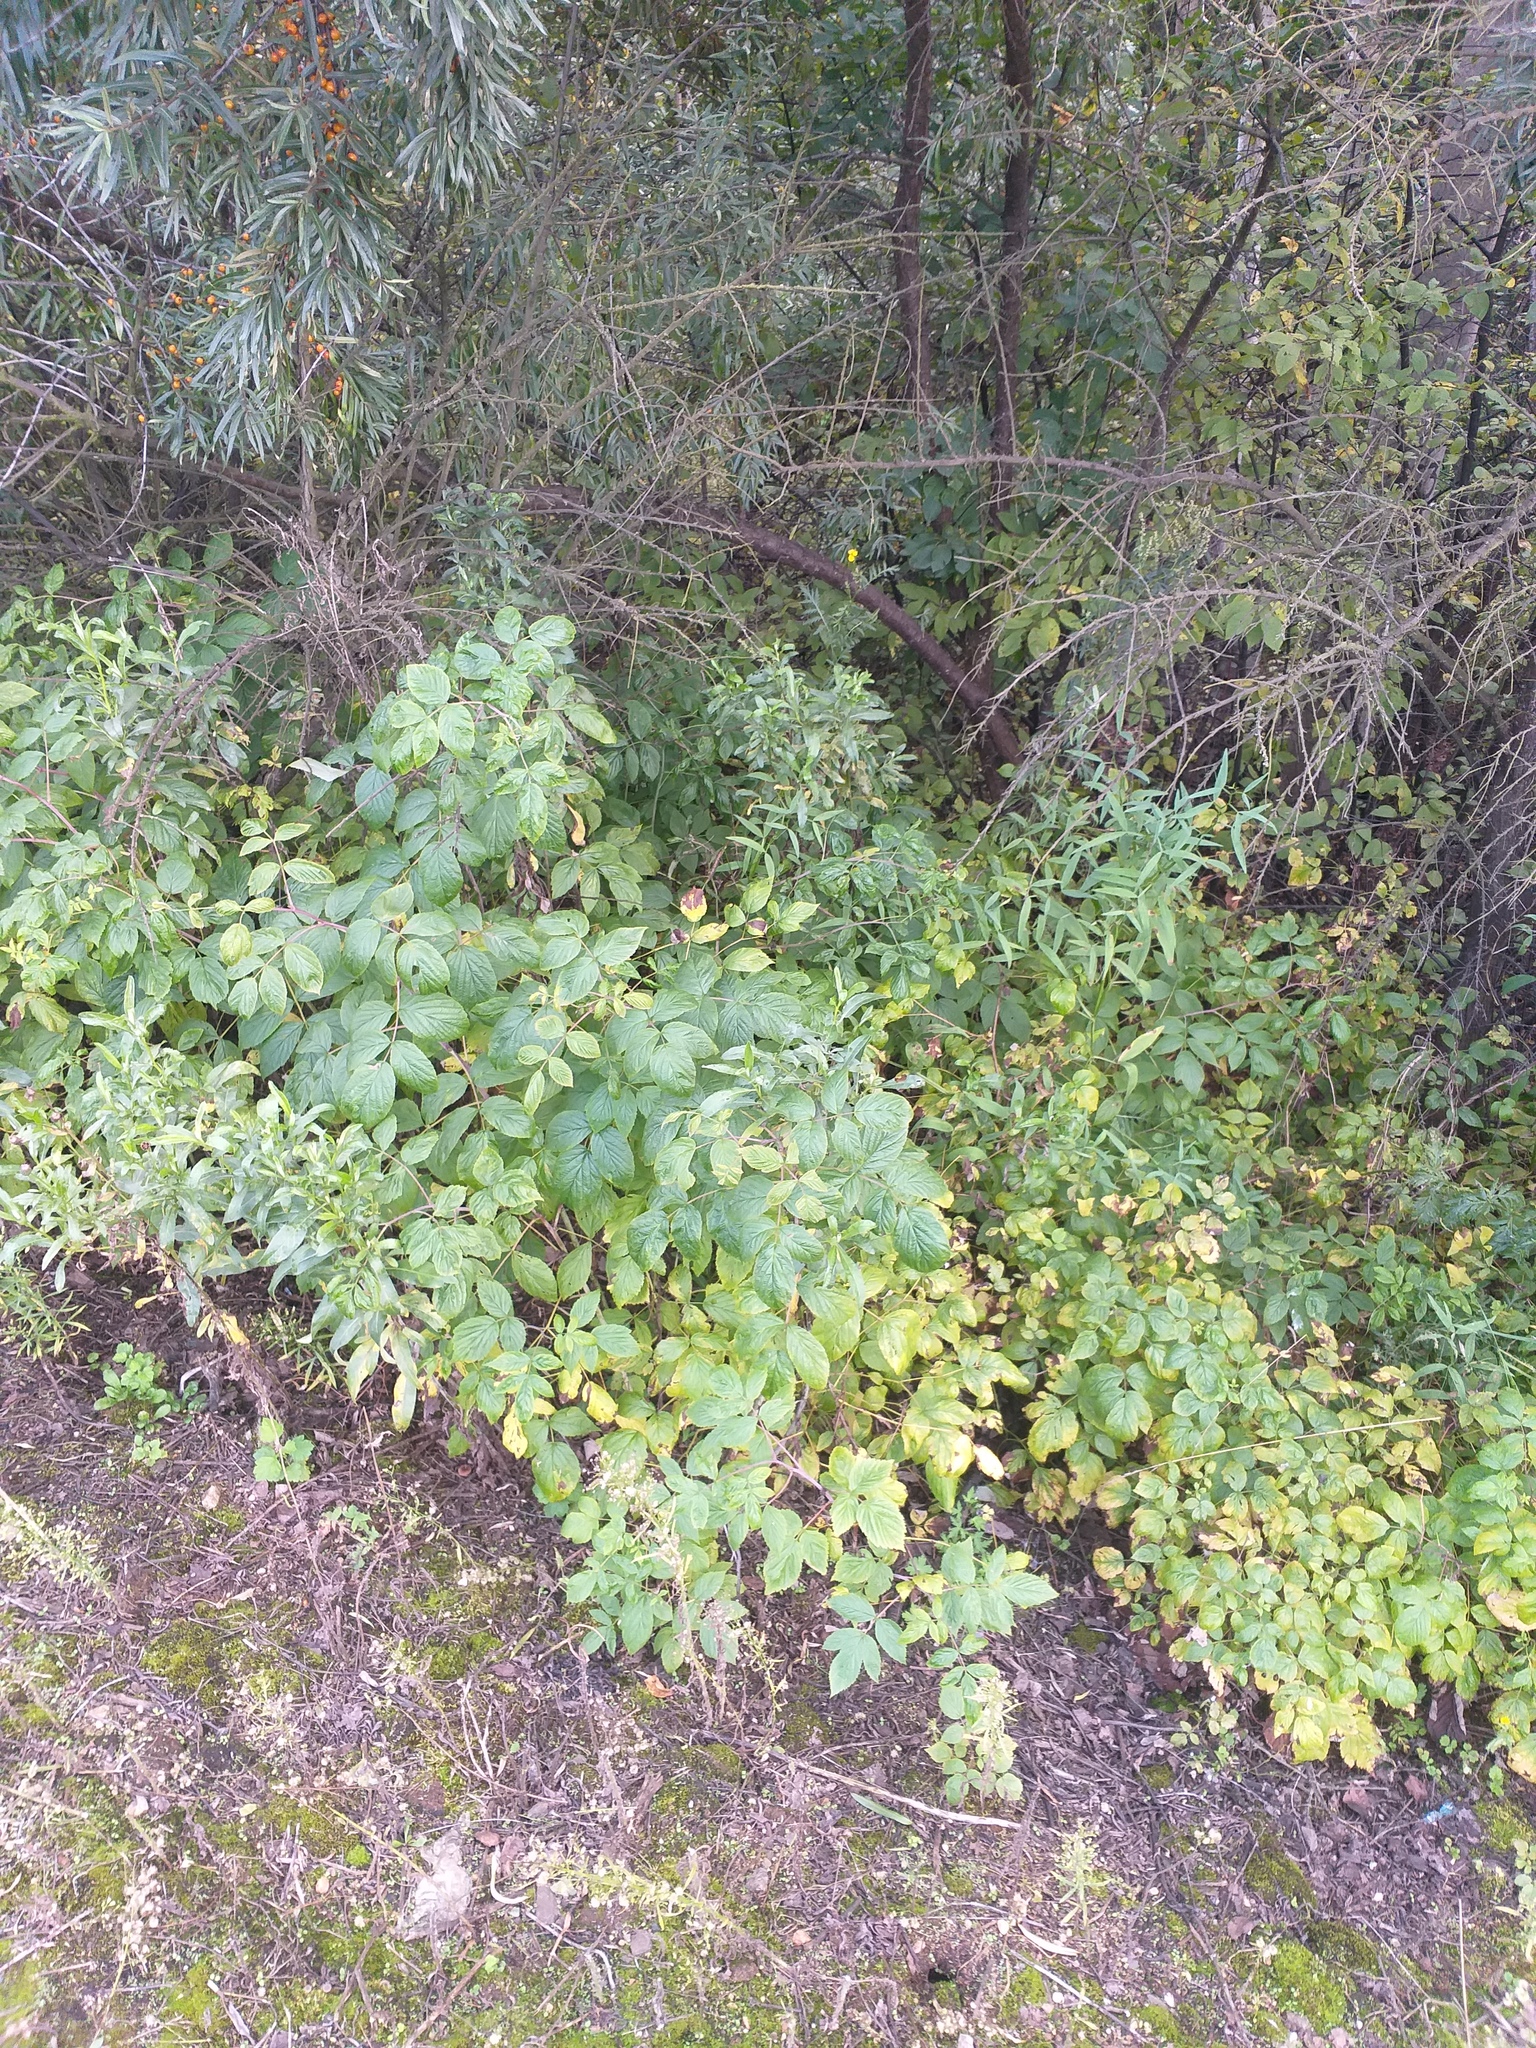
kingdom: Plantae
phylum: Tracheophyta
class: Magnoliopsida
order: Rosales
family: Rosaceae
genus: Rubus
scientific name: Rubus idaeus
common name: Raspberry
